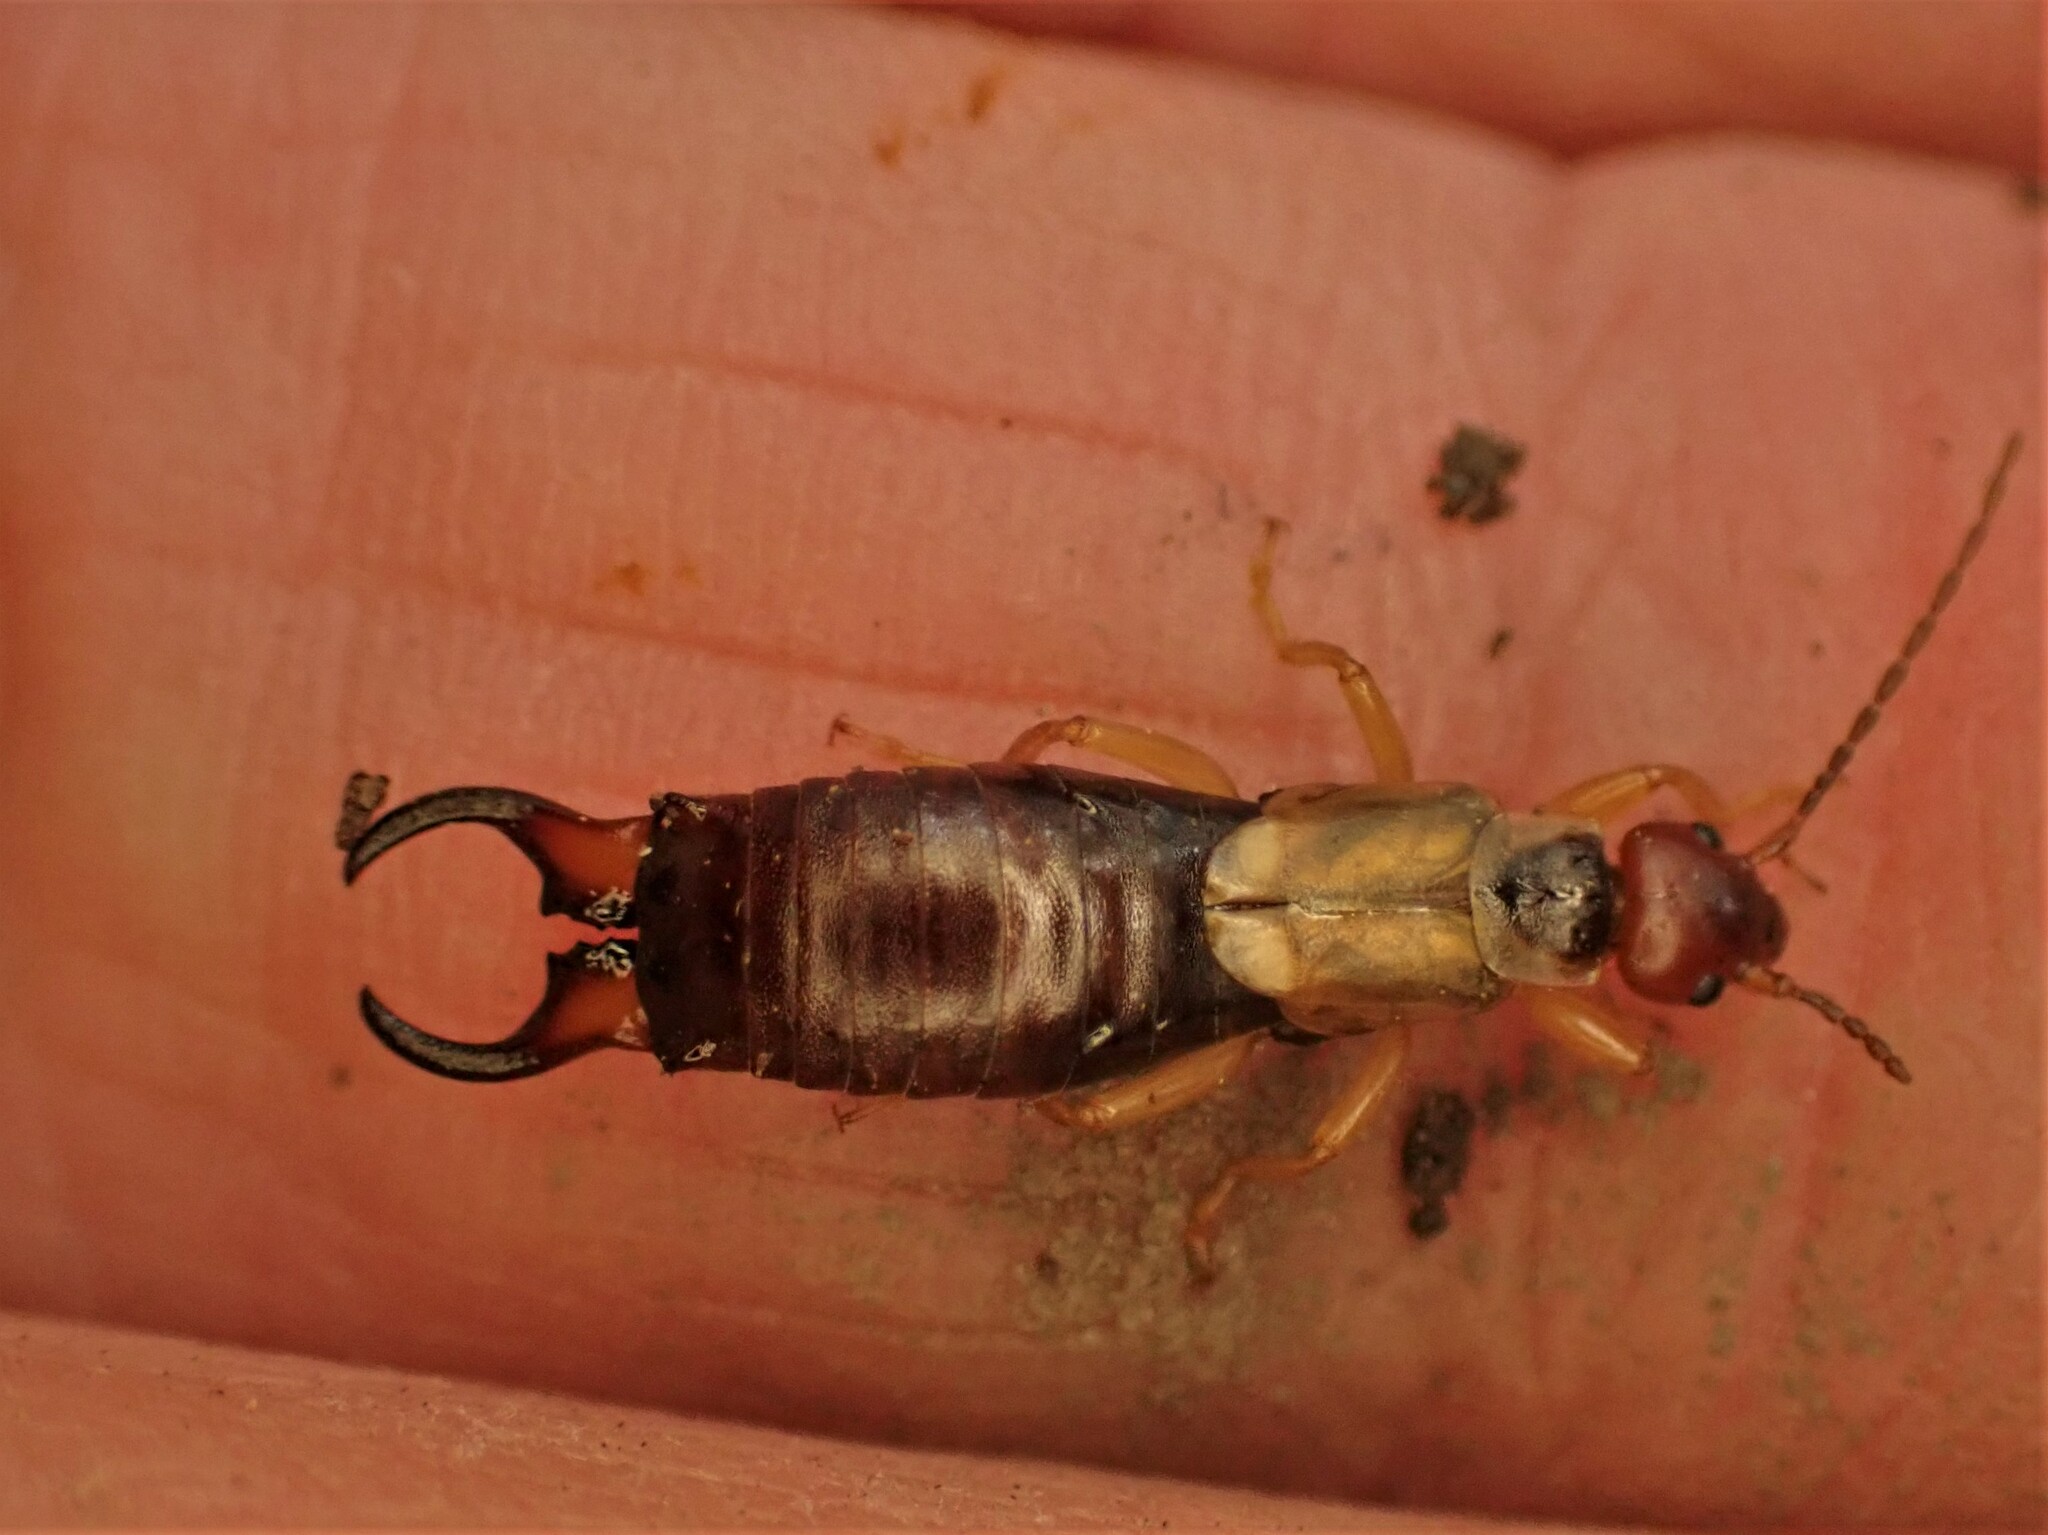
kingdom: Animalia
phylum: Arthropoda
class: Insecta
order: Dermaptera
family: Forficulidae
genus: Forficula
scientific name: Forficula dentata
